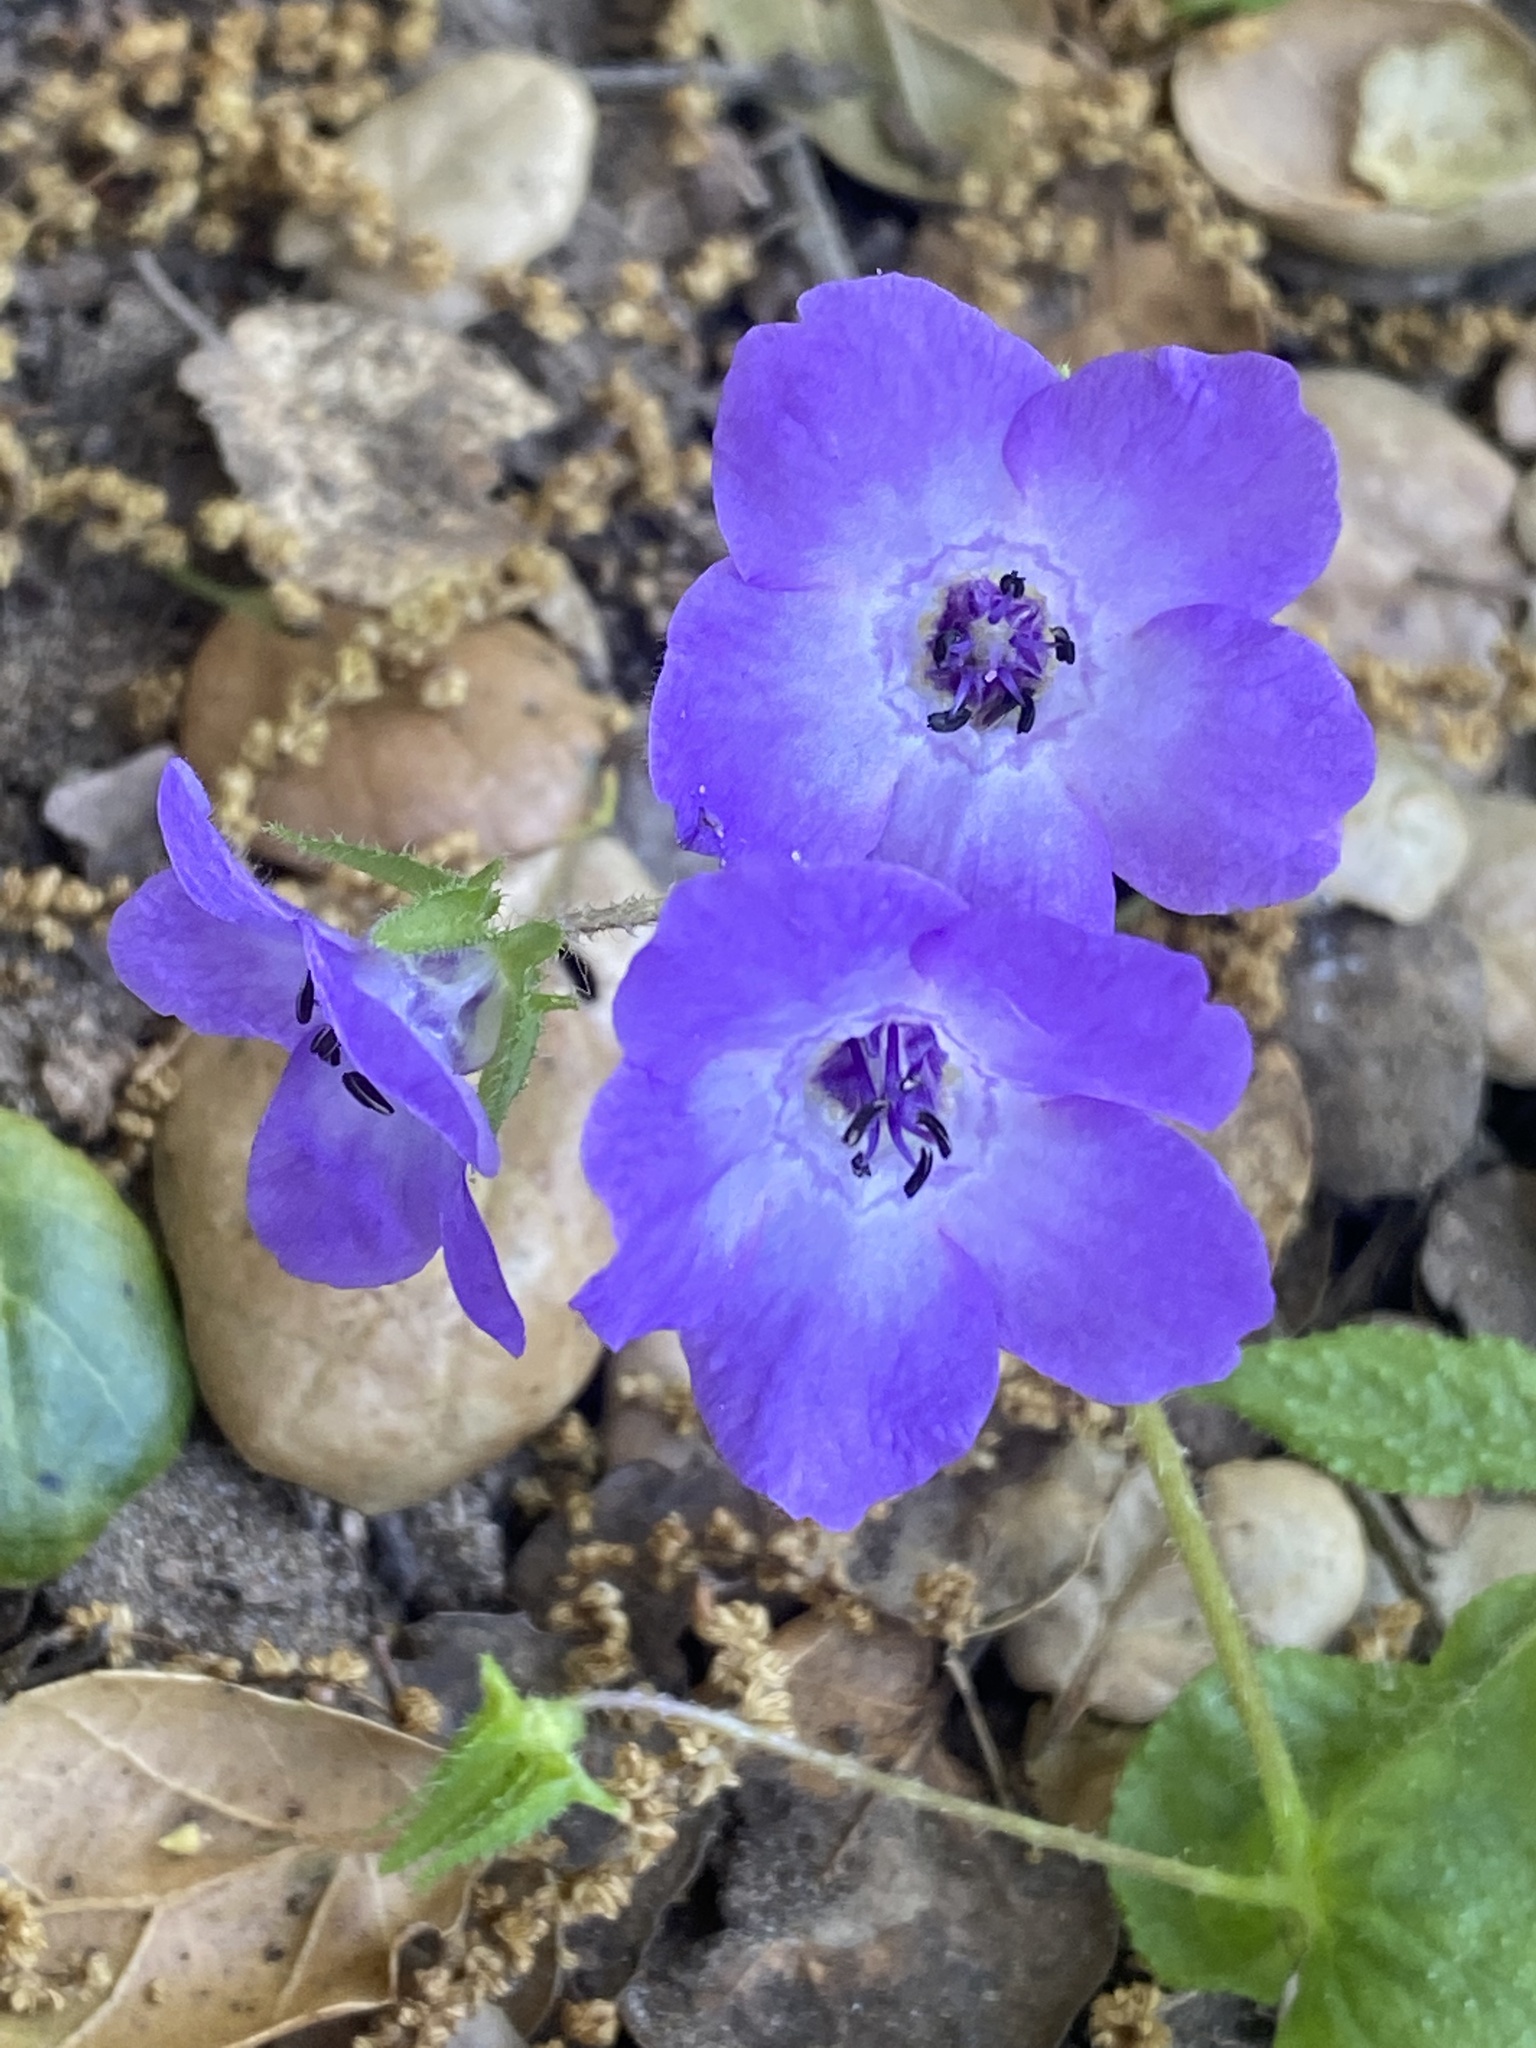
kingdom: Plantae
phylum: Tracheophyta
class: Magnoliopsida
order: Boraginales
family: Hydrophyllaceae
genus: Pholistoma
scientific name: Pholistoma auritum
